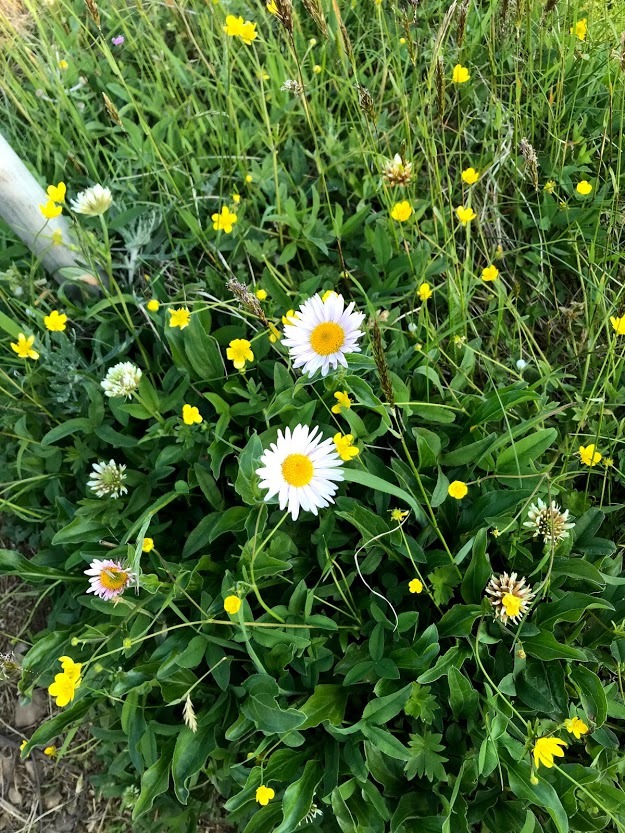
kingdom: Plantae
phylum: Tracheophyta
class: Magnoliopsida
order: Asterales
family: Asteraceae
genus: Erigeron
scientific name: Erigeron peregrinus
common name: Peregrine fleabane
